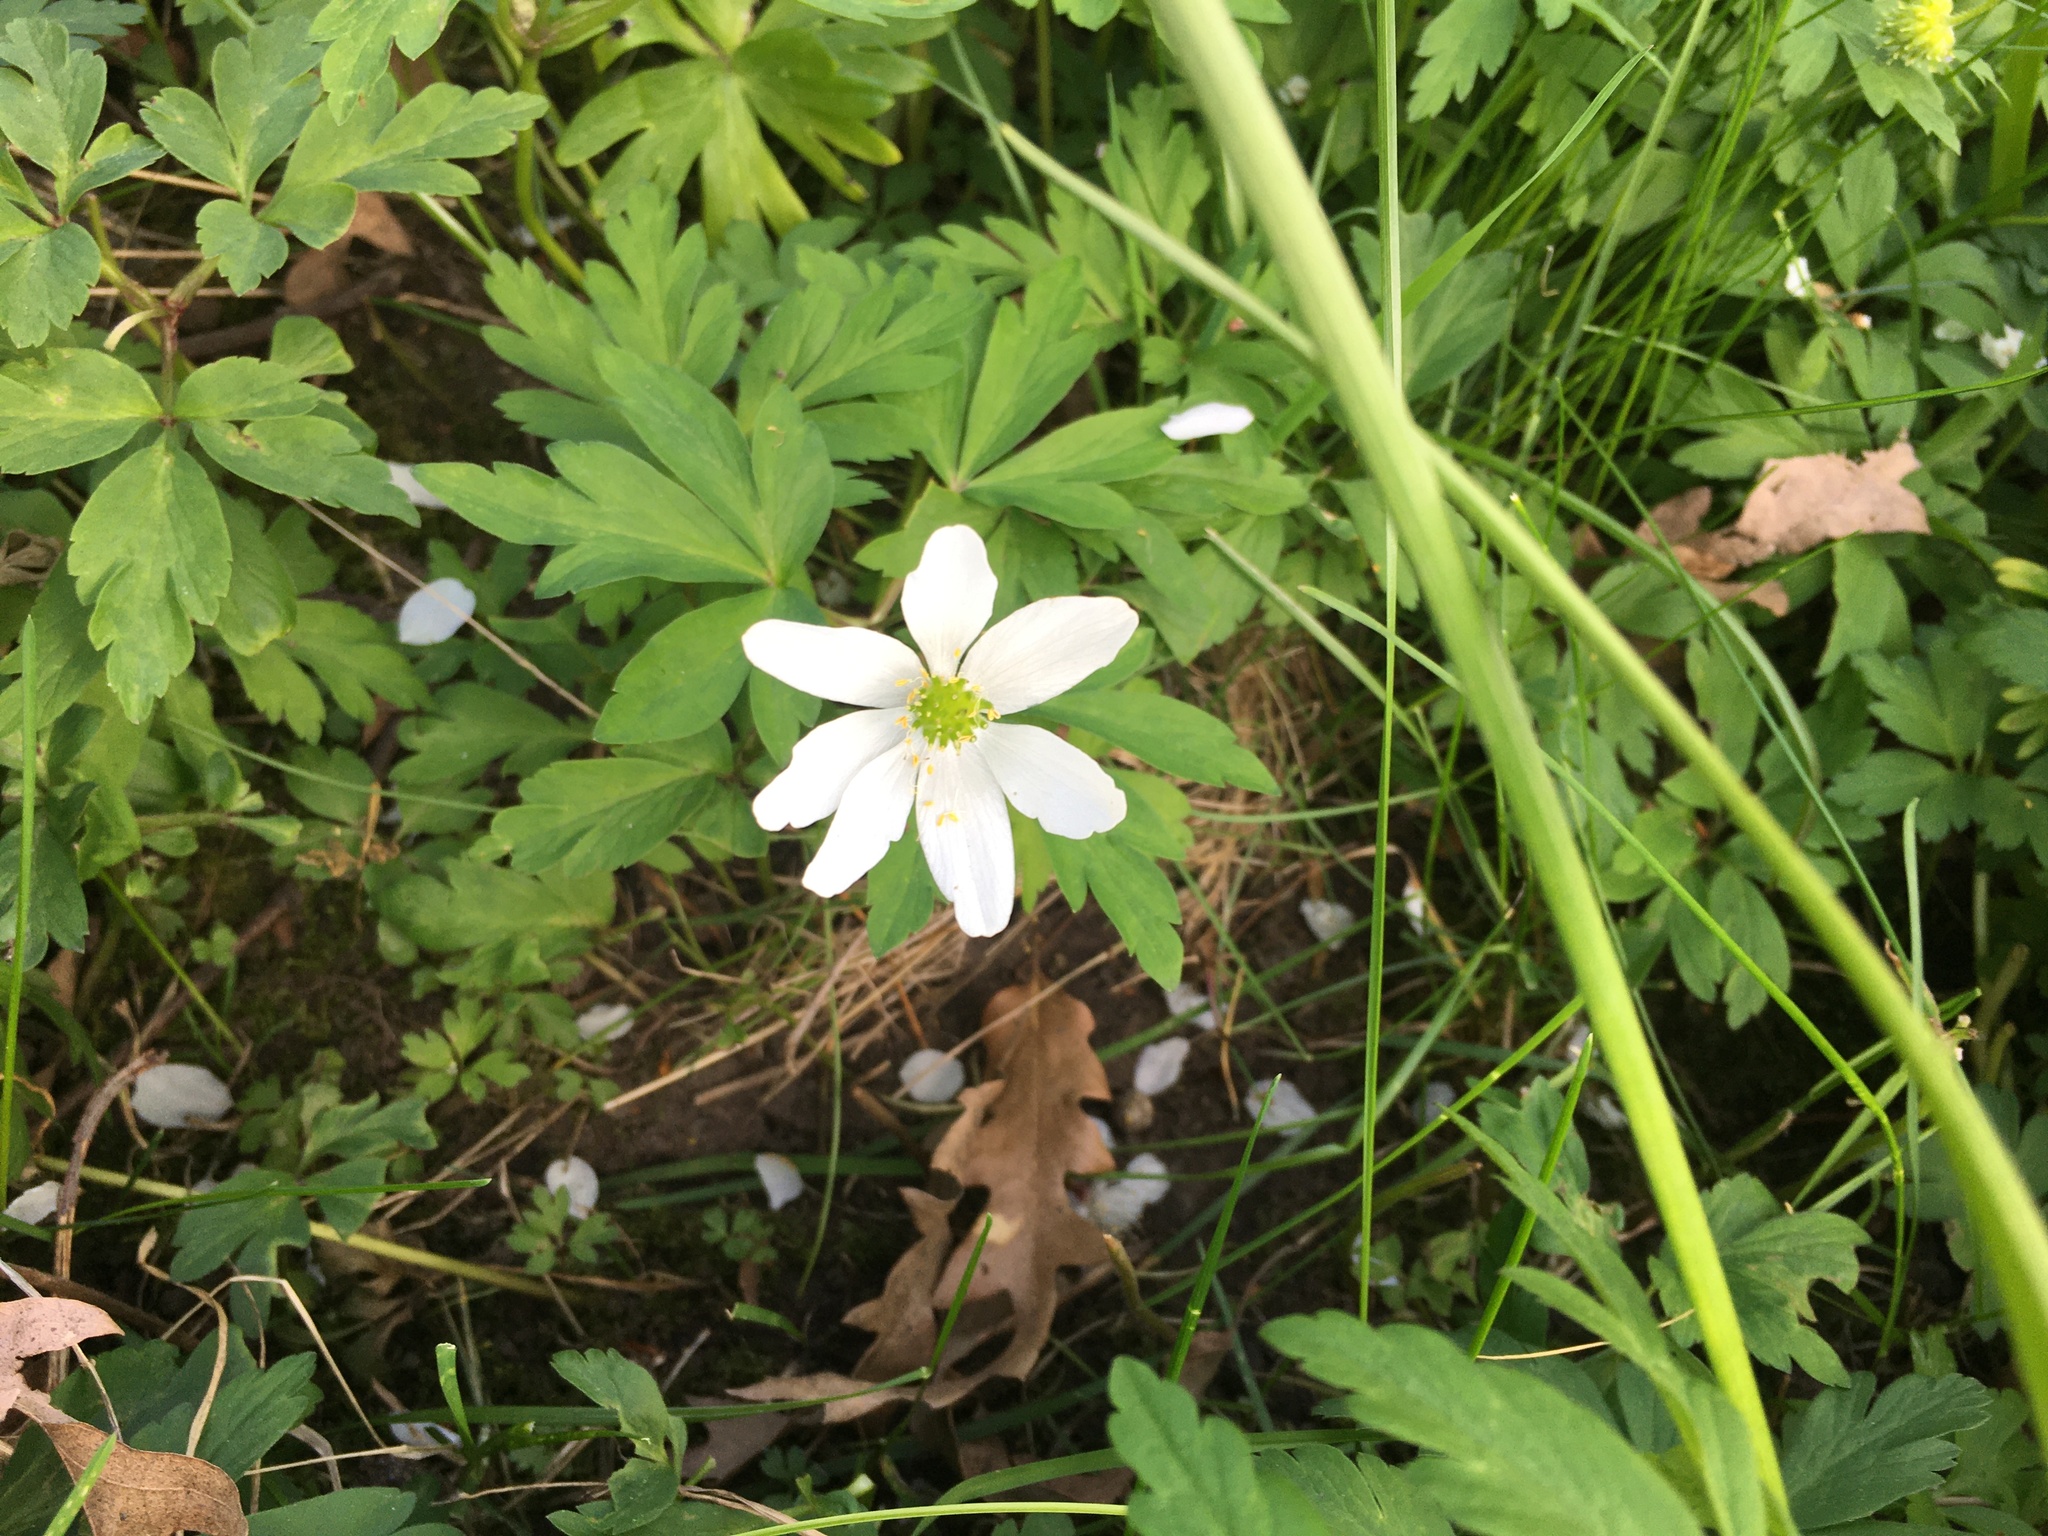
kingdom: Plantae
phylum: Tracheophyta
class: Magnoliopsida
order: Ranunculales
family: Ranunculaceae
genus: Anemone
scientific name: Anemone nemorosa
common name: Wood anemone
